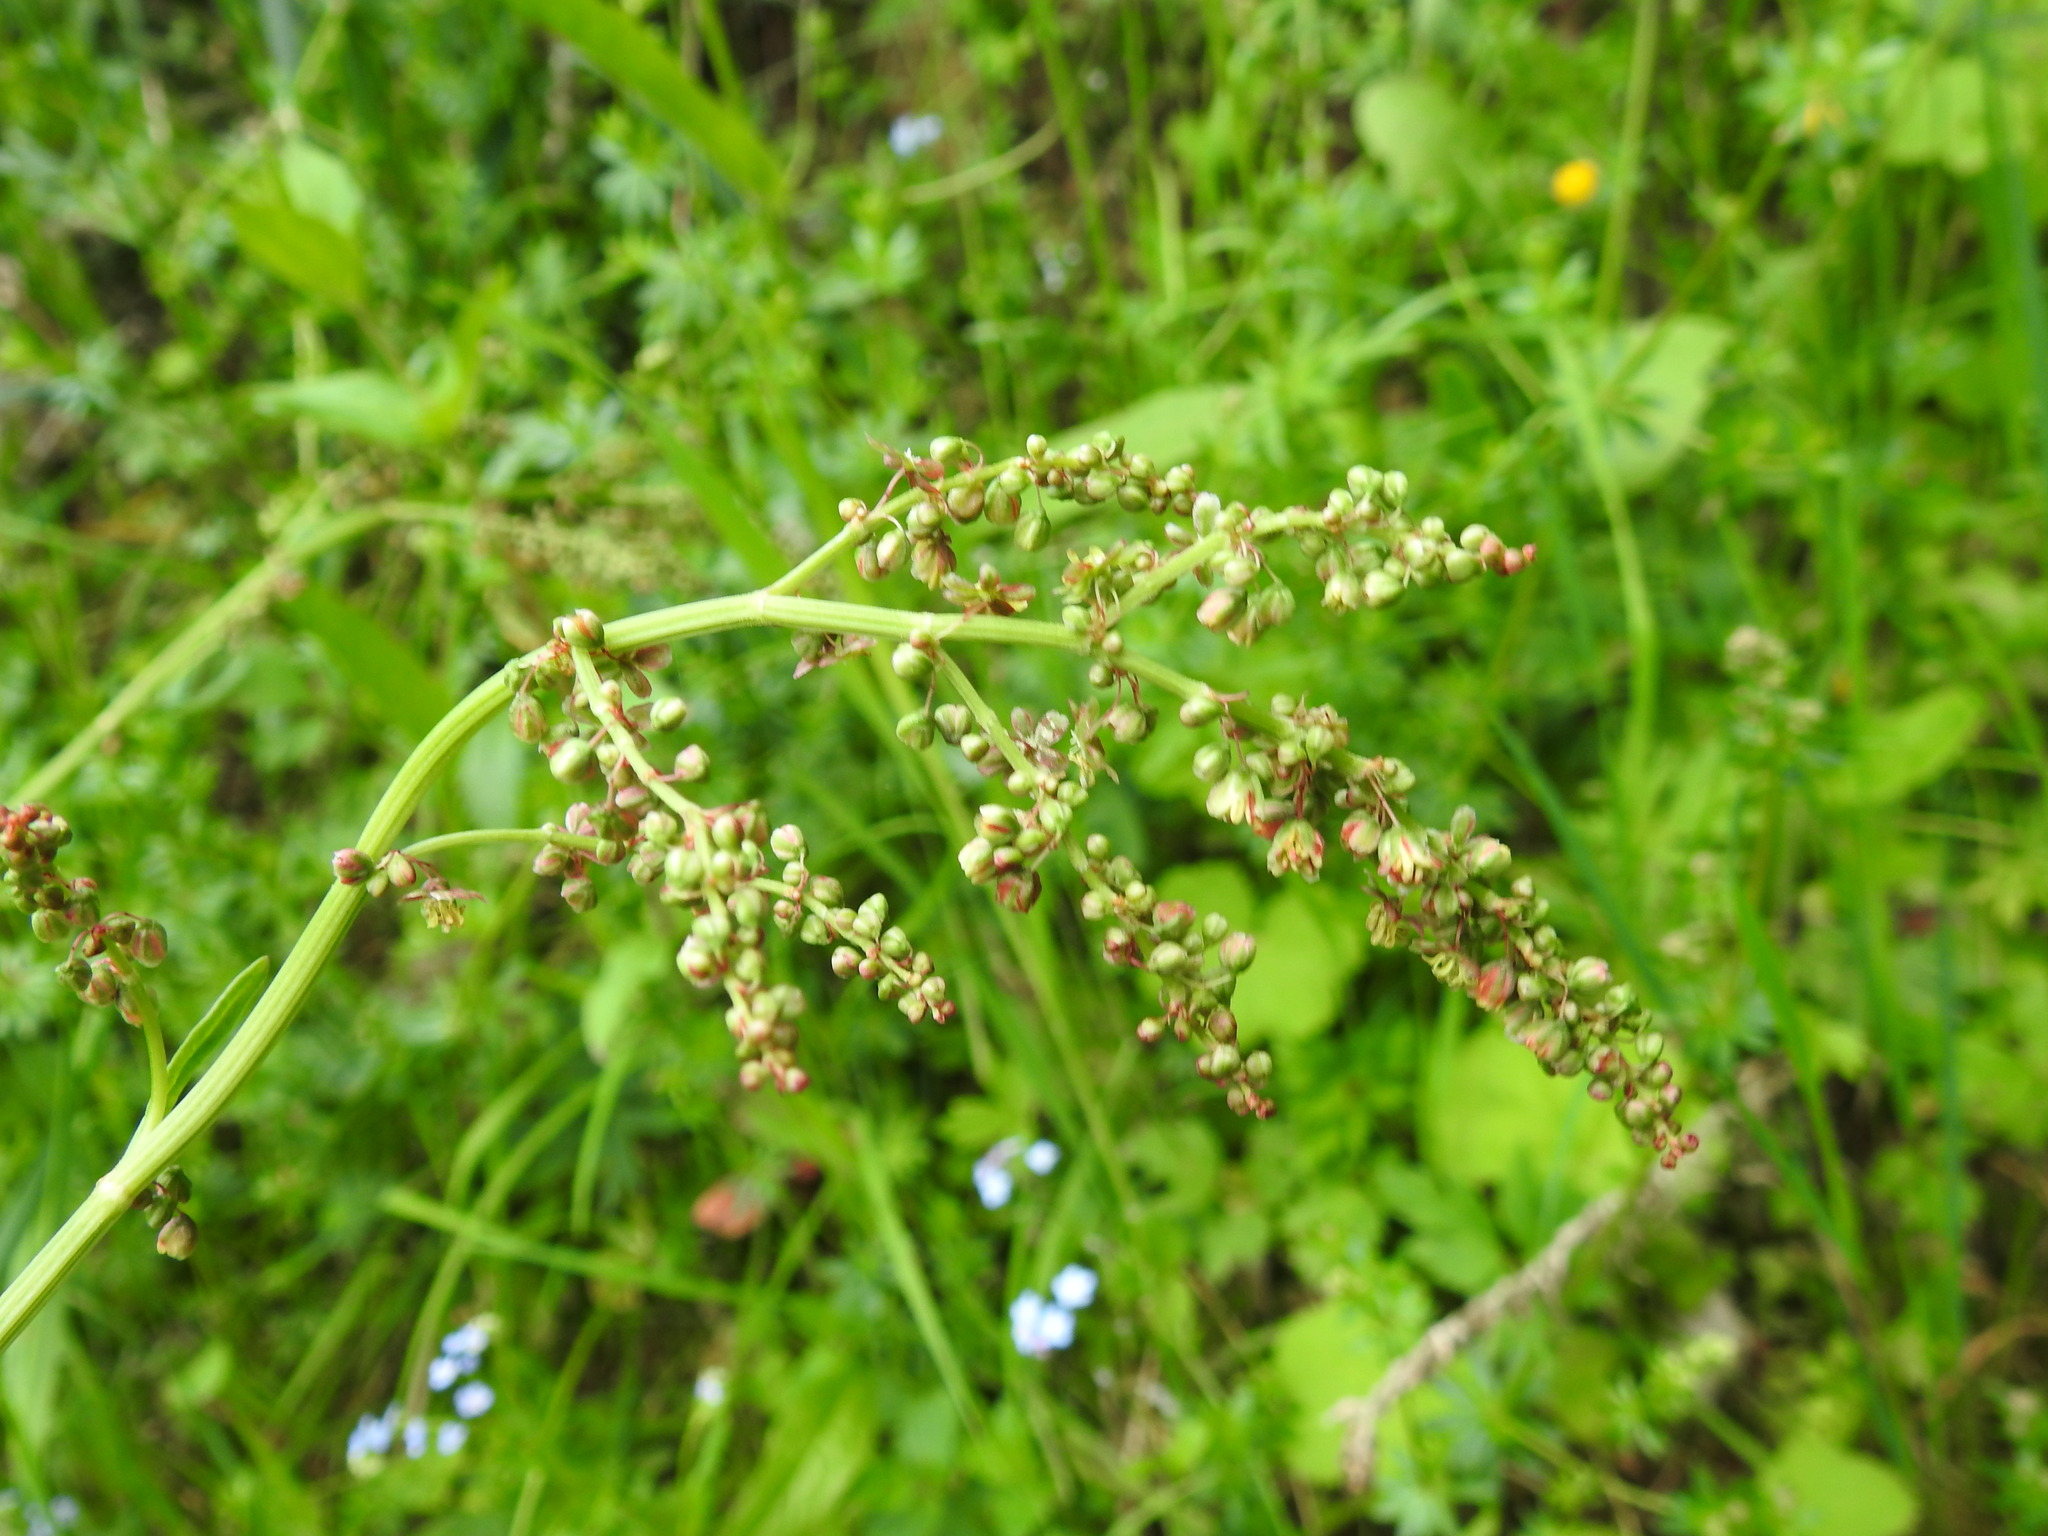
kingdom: Plantae
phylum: Tracheophyta
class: Magnoliopsida
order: Caryophyllales
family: Polygonaceae
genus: Rumex
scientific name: Rumex acetosa
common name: Garden sorrel
